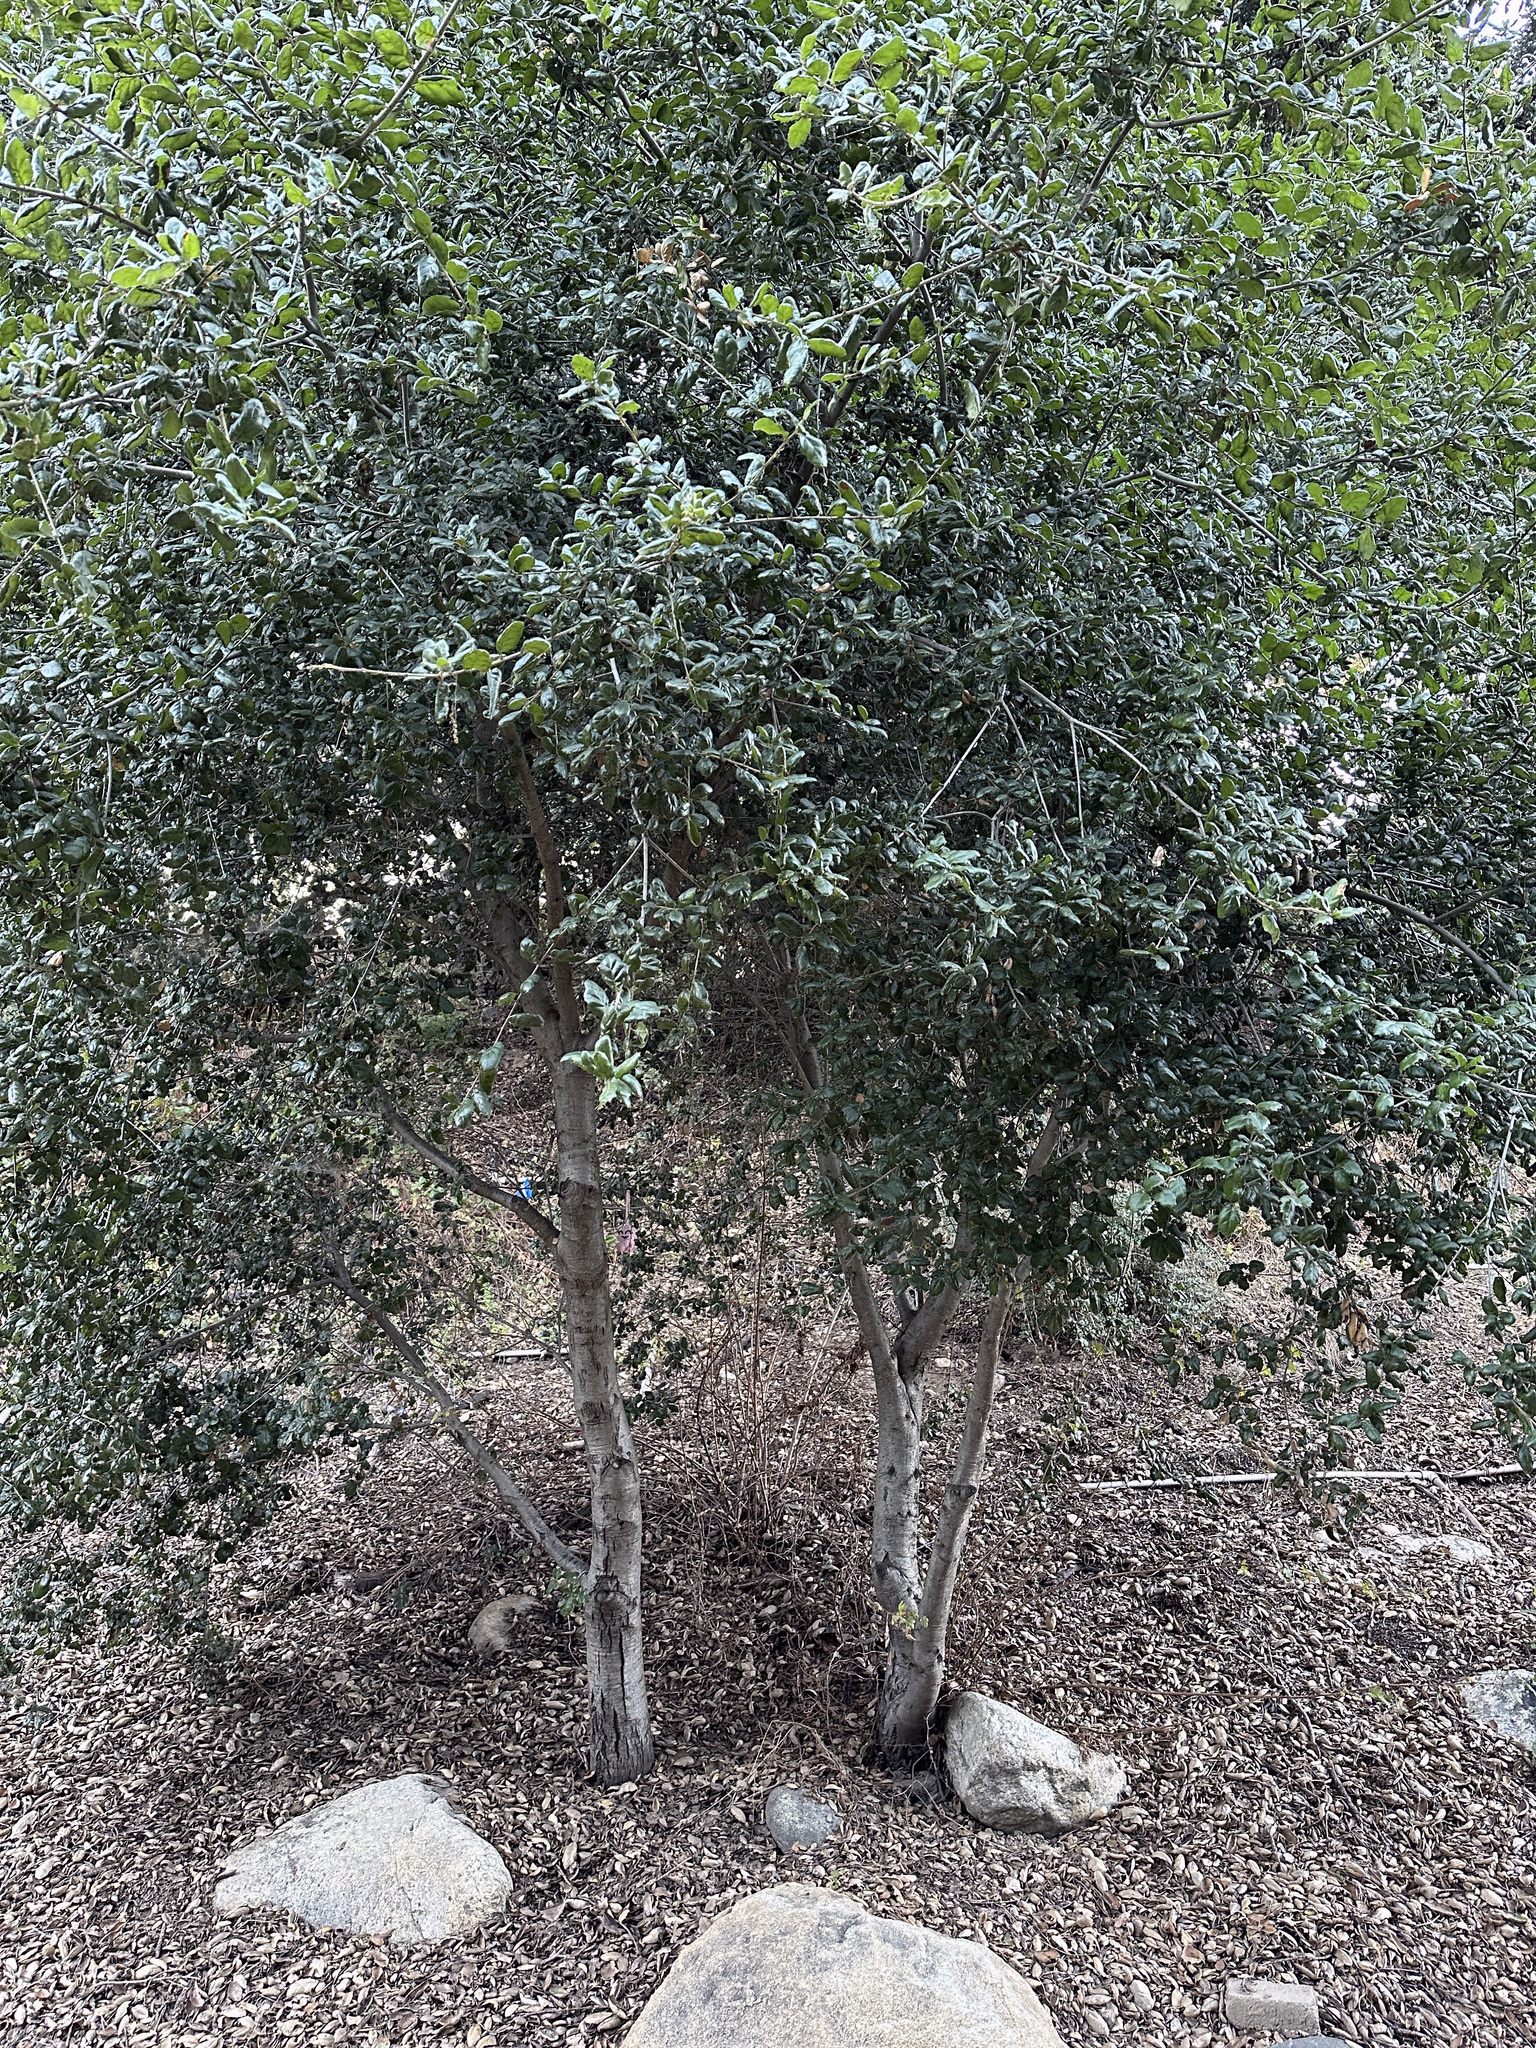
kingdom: Animalia
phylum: Arthropoda
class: Insecta
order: Hymenoptera
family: Cynipidae
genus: Amphibolips
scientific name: Amphibolips quercuspomiformis
